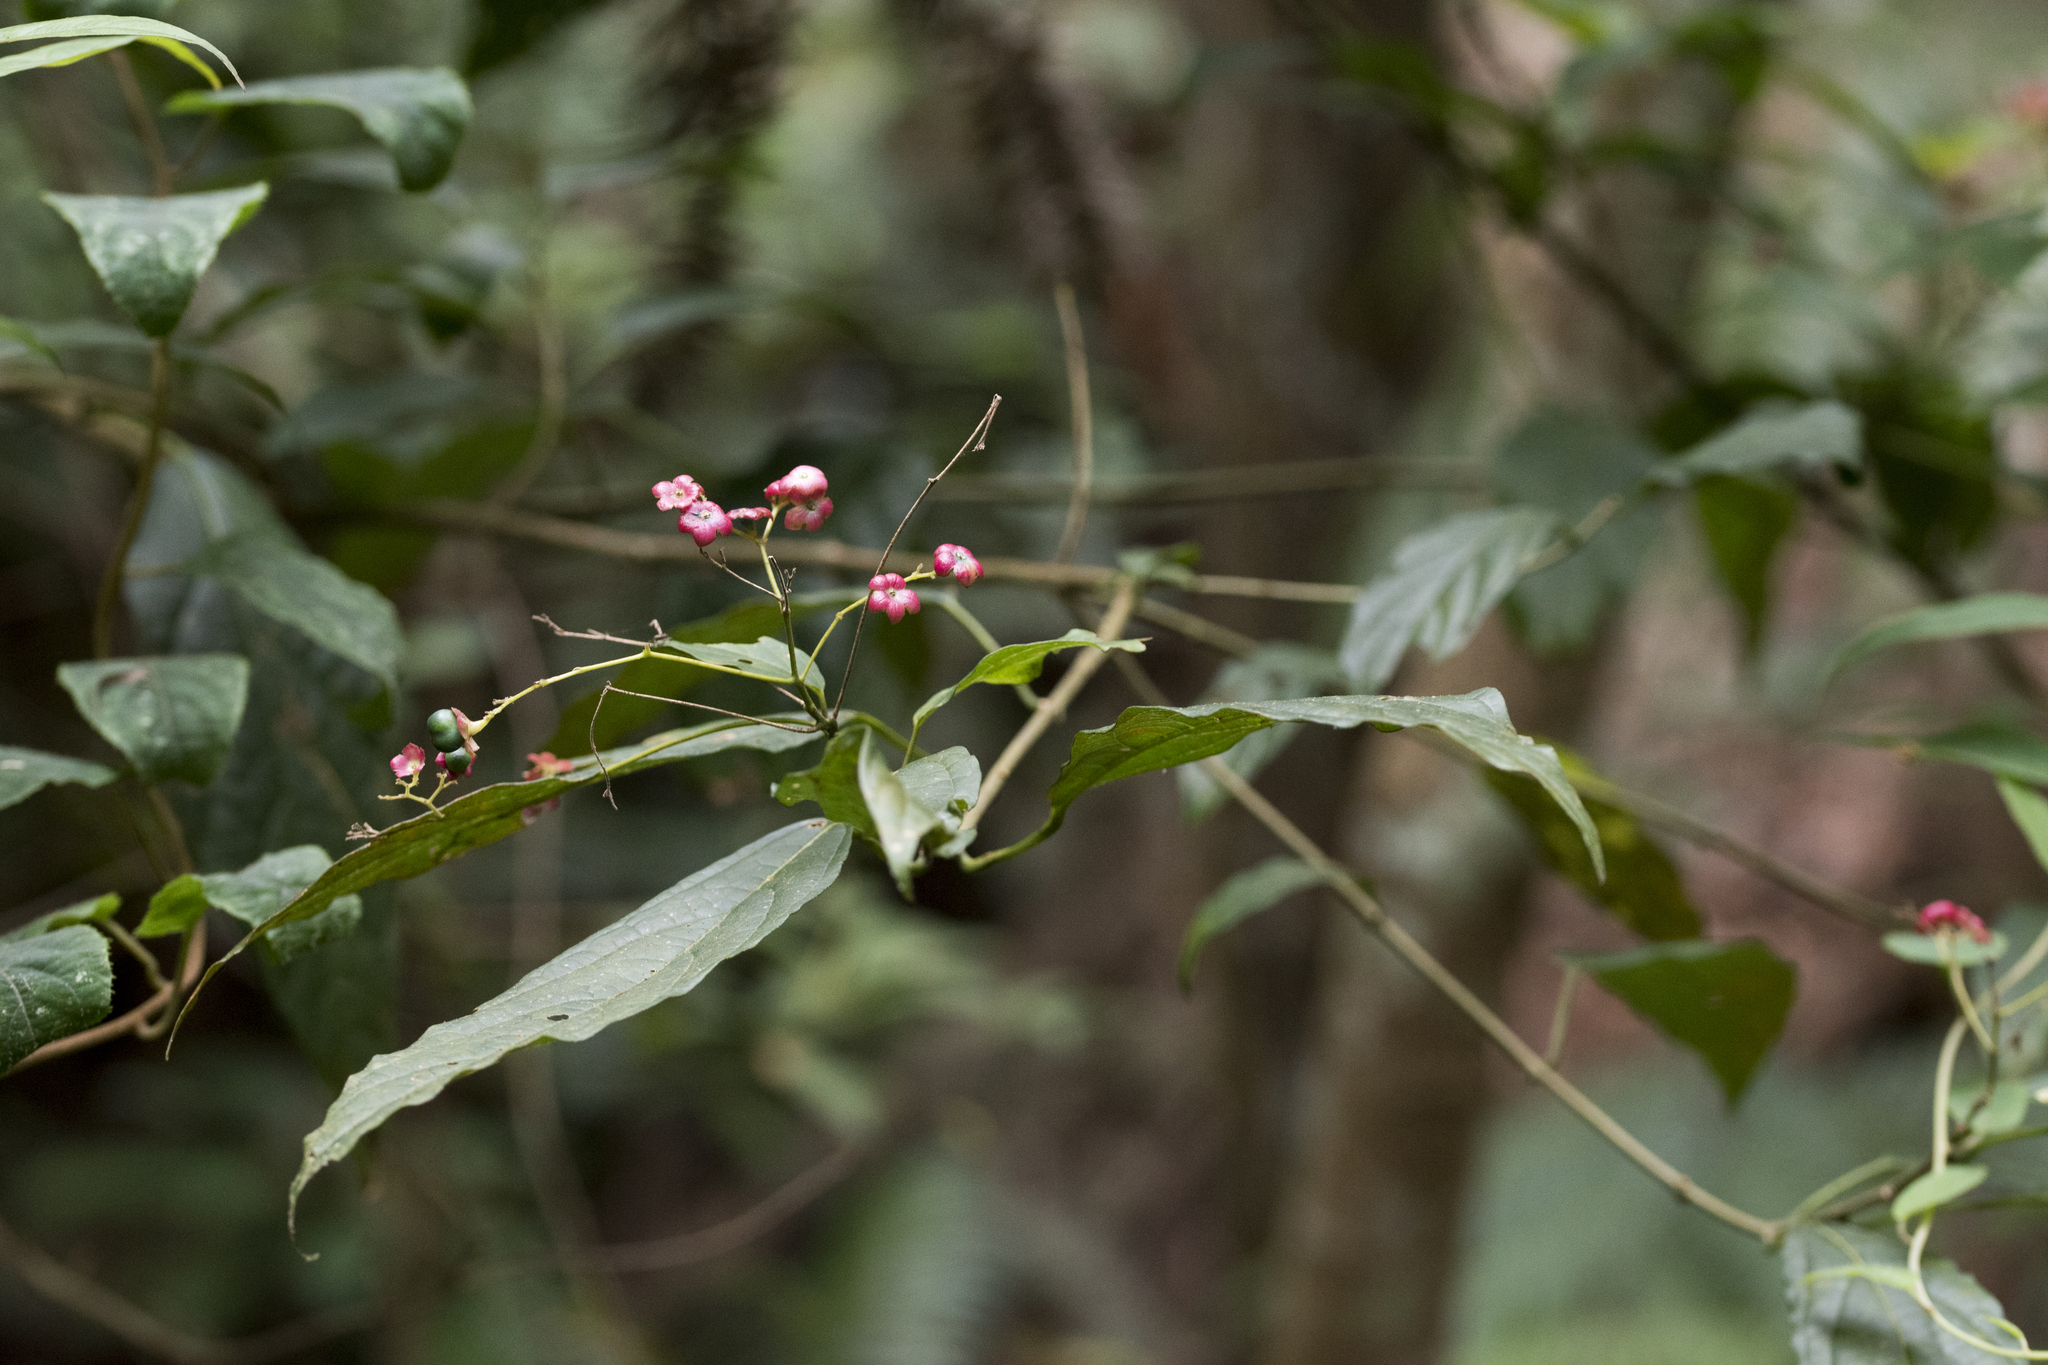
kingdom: Plantae
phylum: Tracheophyta
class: Magnoliopsida
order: Lamiales
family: Lamiaceae
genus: Clerodendrum
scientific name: Clerodendrum cyrtophyllum
